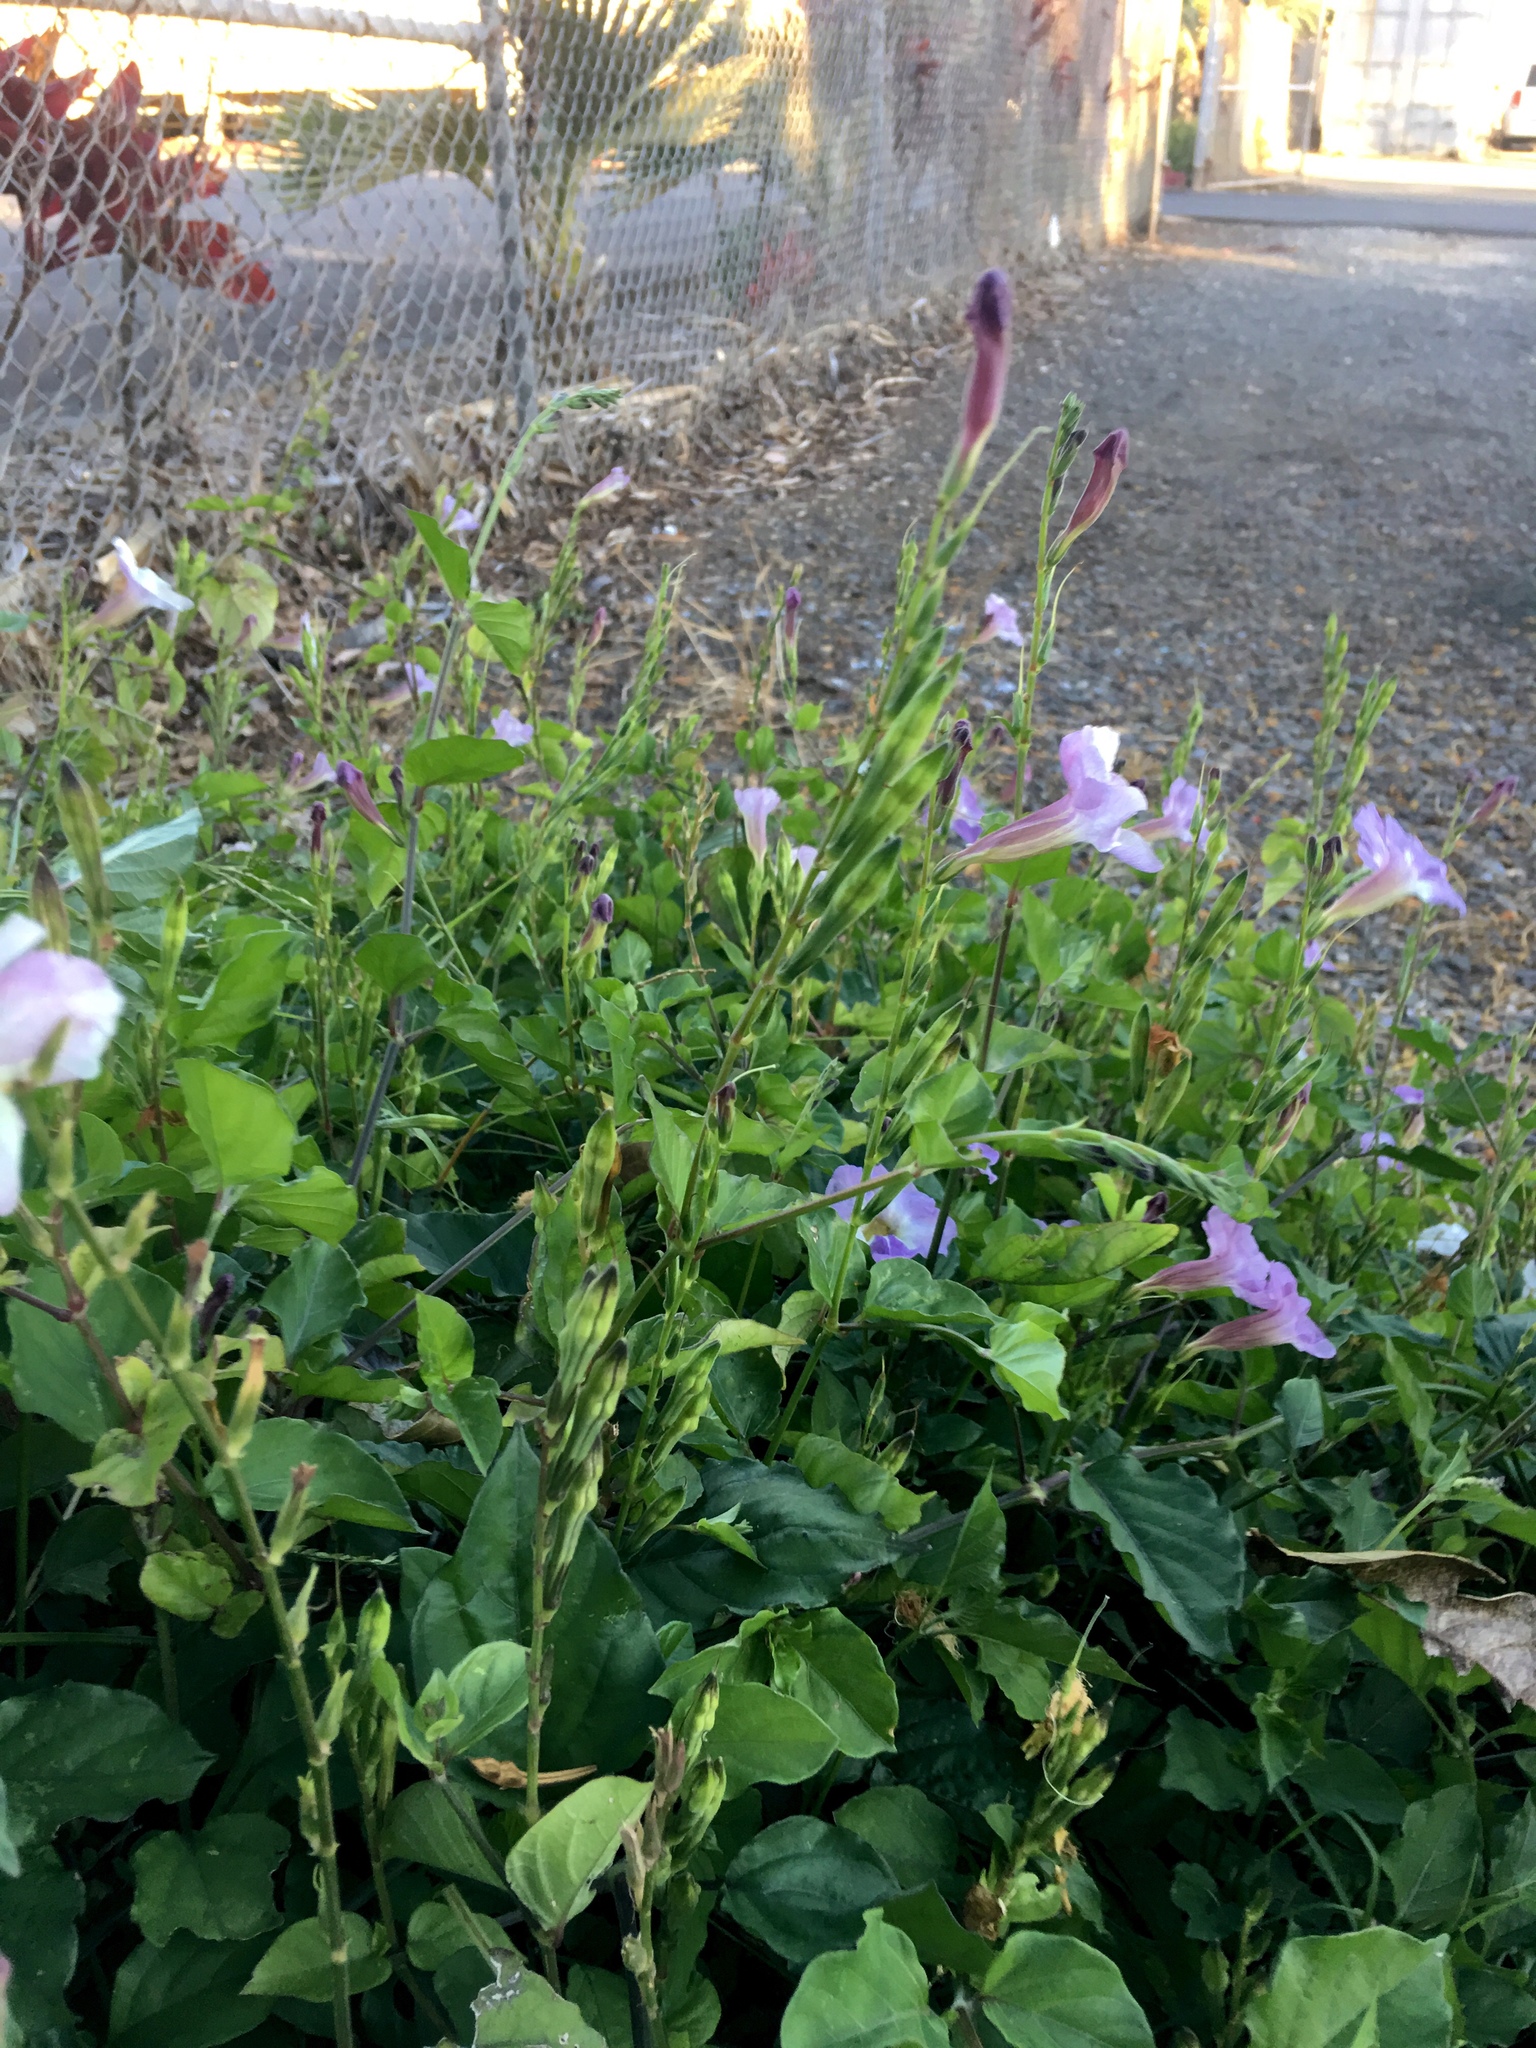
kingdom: Plantae
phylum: Tracheophyta
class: Magnoliopsida
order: Lamiales
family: Acanthaceae
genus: Asystasia
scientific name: Asystasia gangetica
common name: Chinese violet
